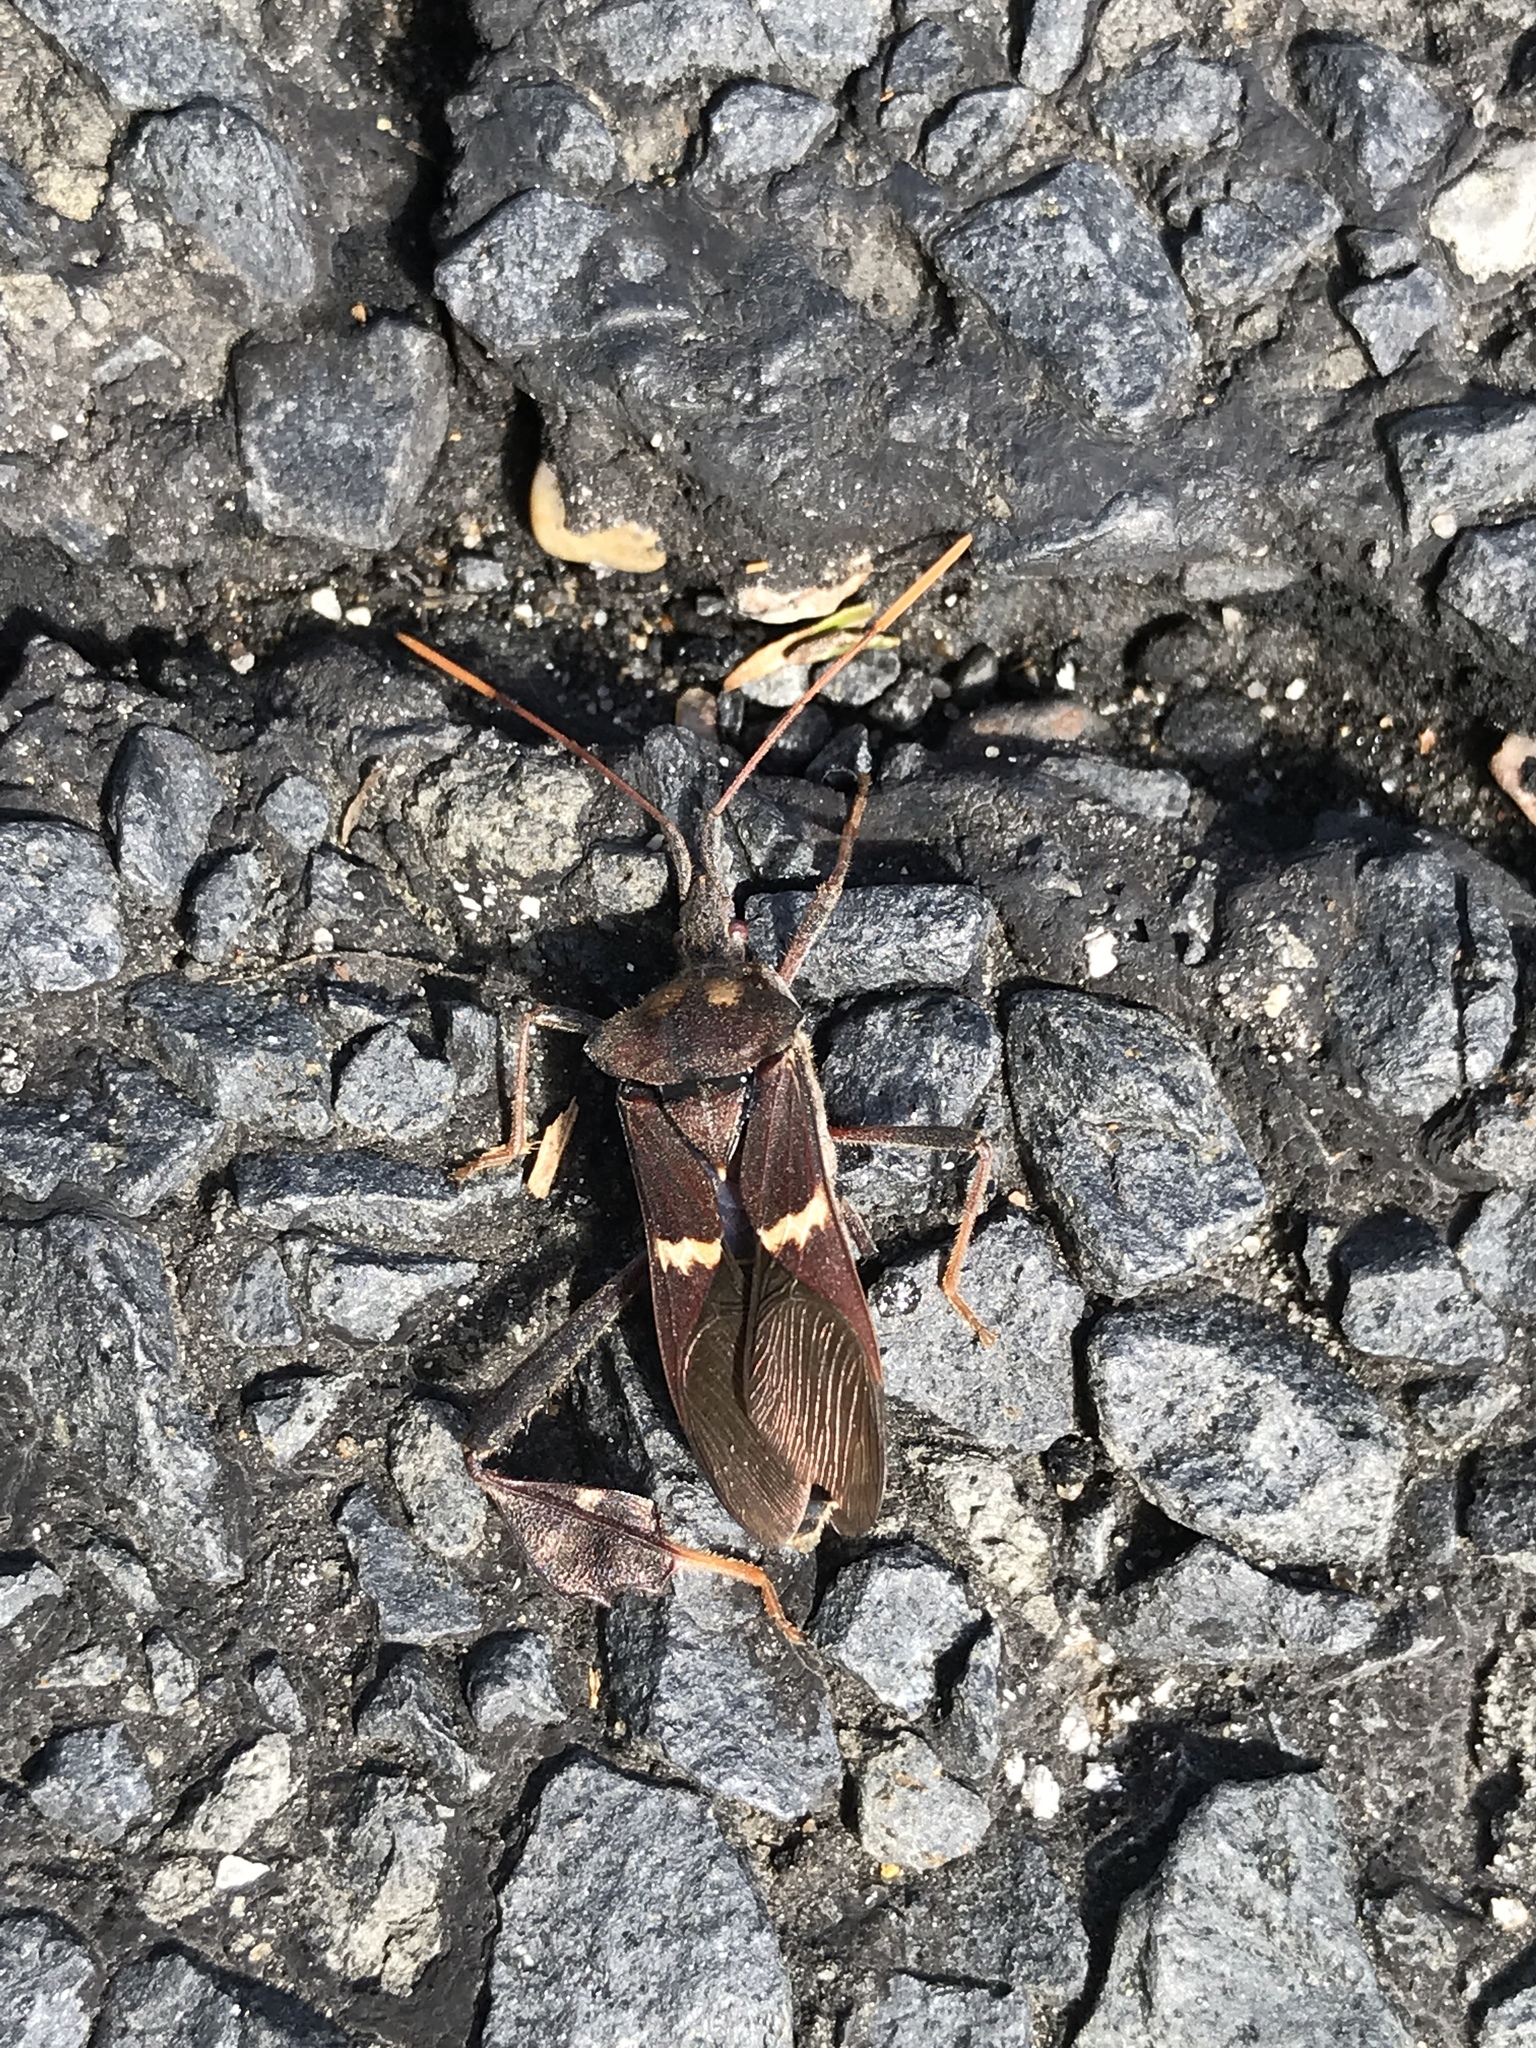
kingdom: Animalia
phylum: Arthropoda
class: Insecta
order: Hemiptera
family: Coreidae
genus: Leptoglossus
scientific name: Leptoglossus zonatus
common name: Large-legged bug
